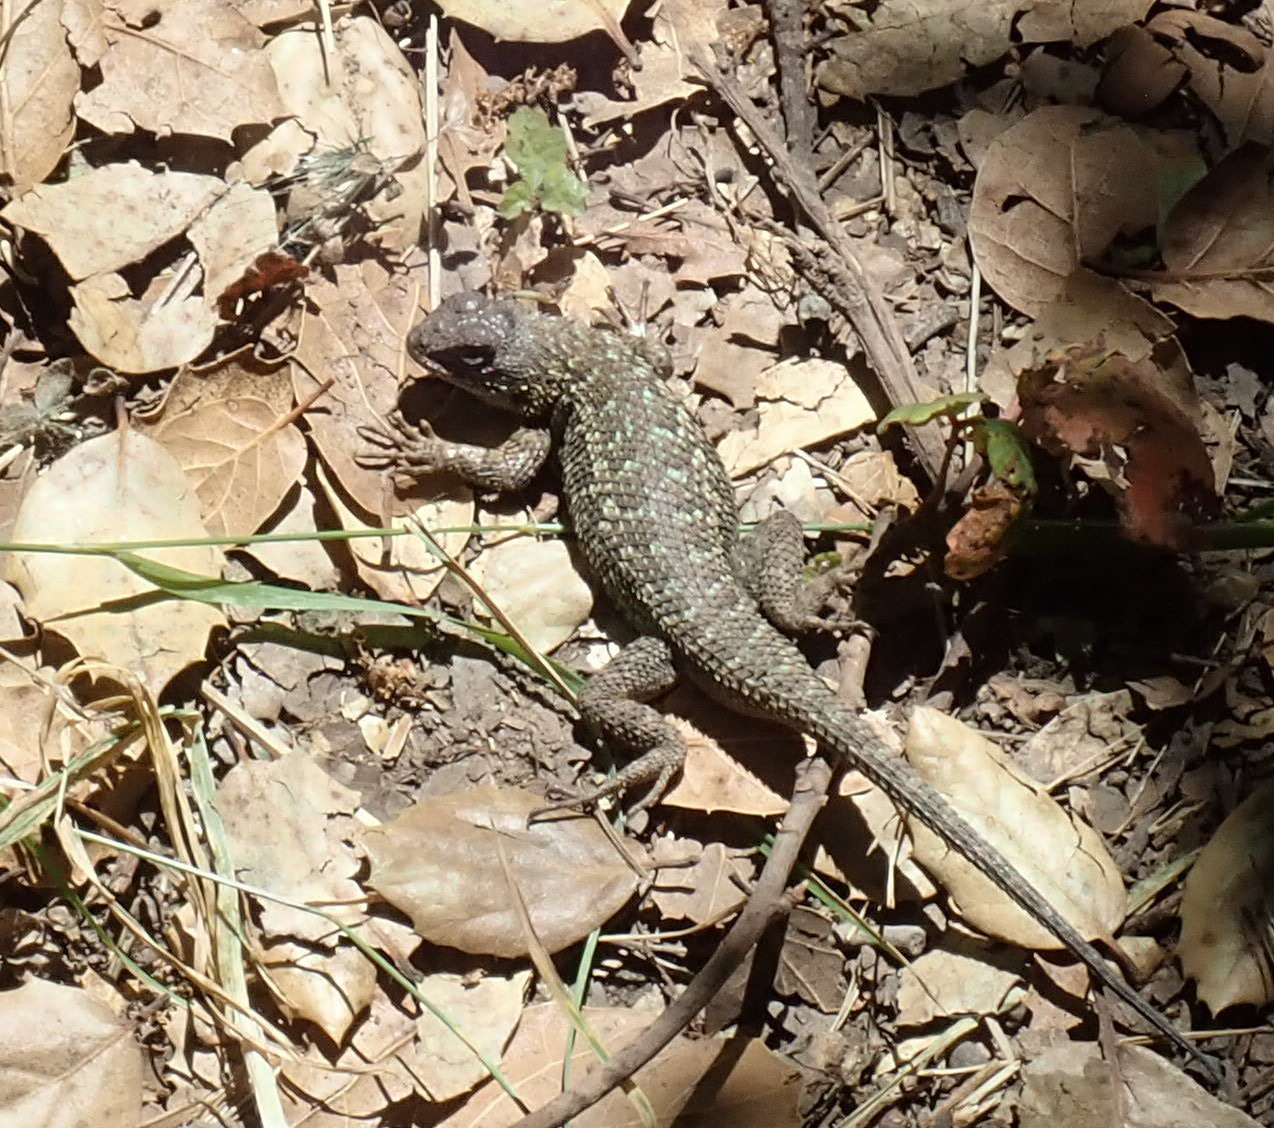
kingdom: Animalia
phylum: Chordata
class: Squamata
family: Phrynosomatidae
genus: Sceloporus
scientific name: Sceloporus occidentalis
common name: Western fence lizard
